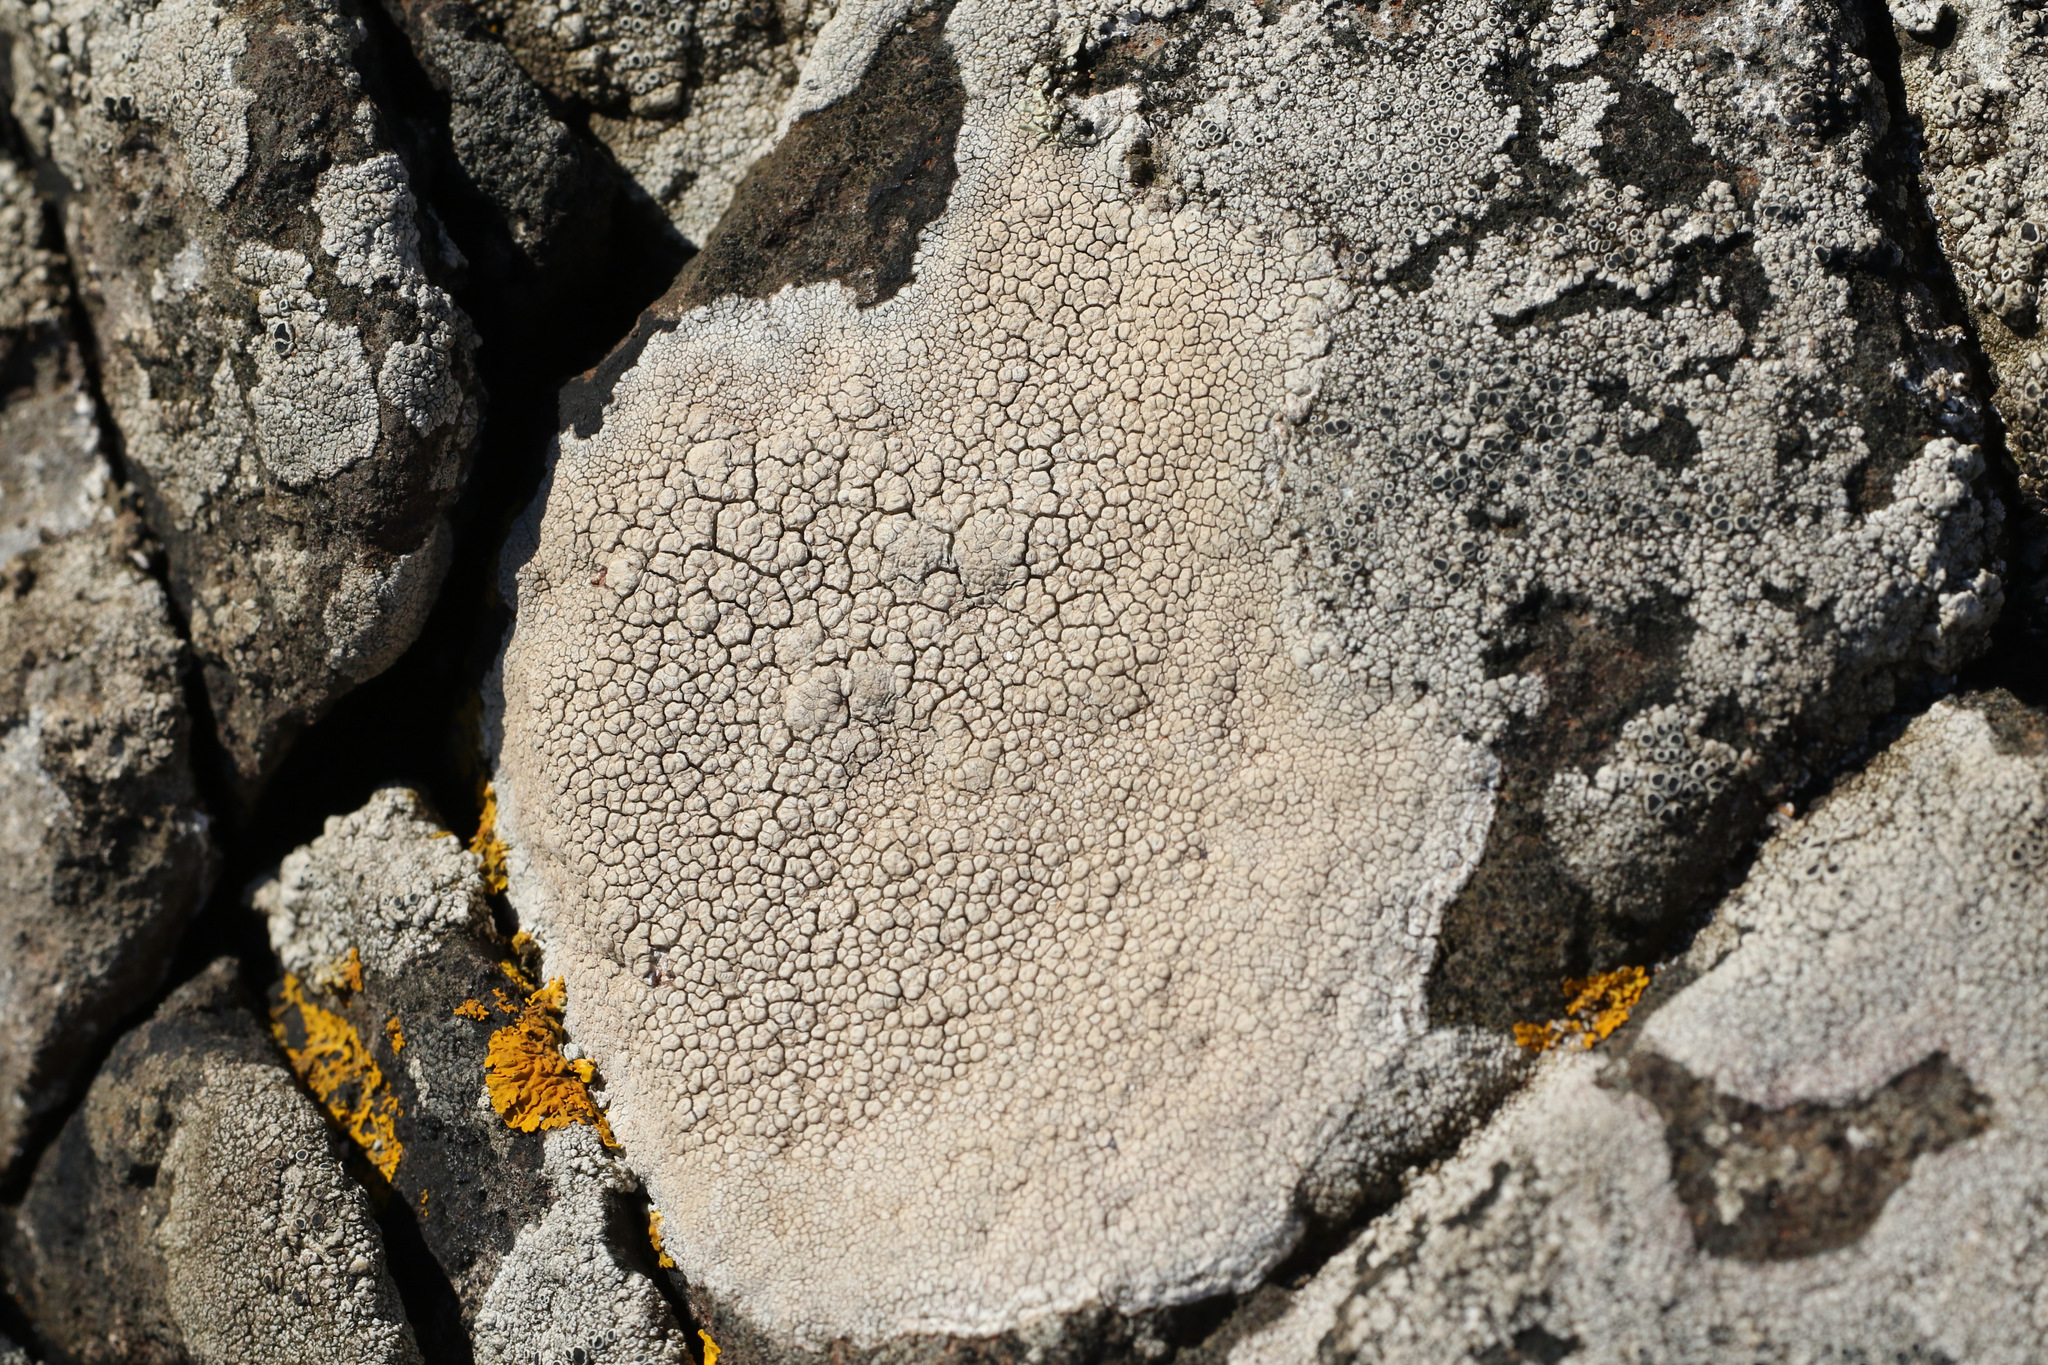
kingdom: Fungi
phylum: Ascomycota
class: Lecanoromycetes
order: Pertusariales
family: Ochrolechiaceae
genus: Ochrolechia
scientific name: Ochrolechia parella
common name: Crab's eye lichen
